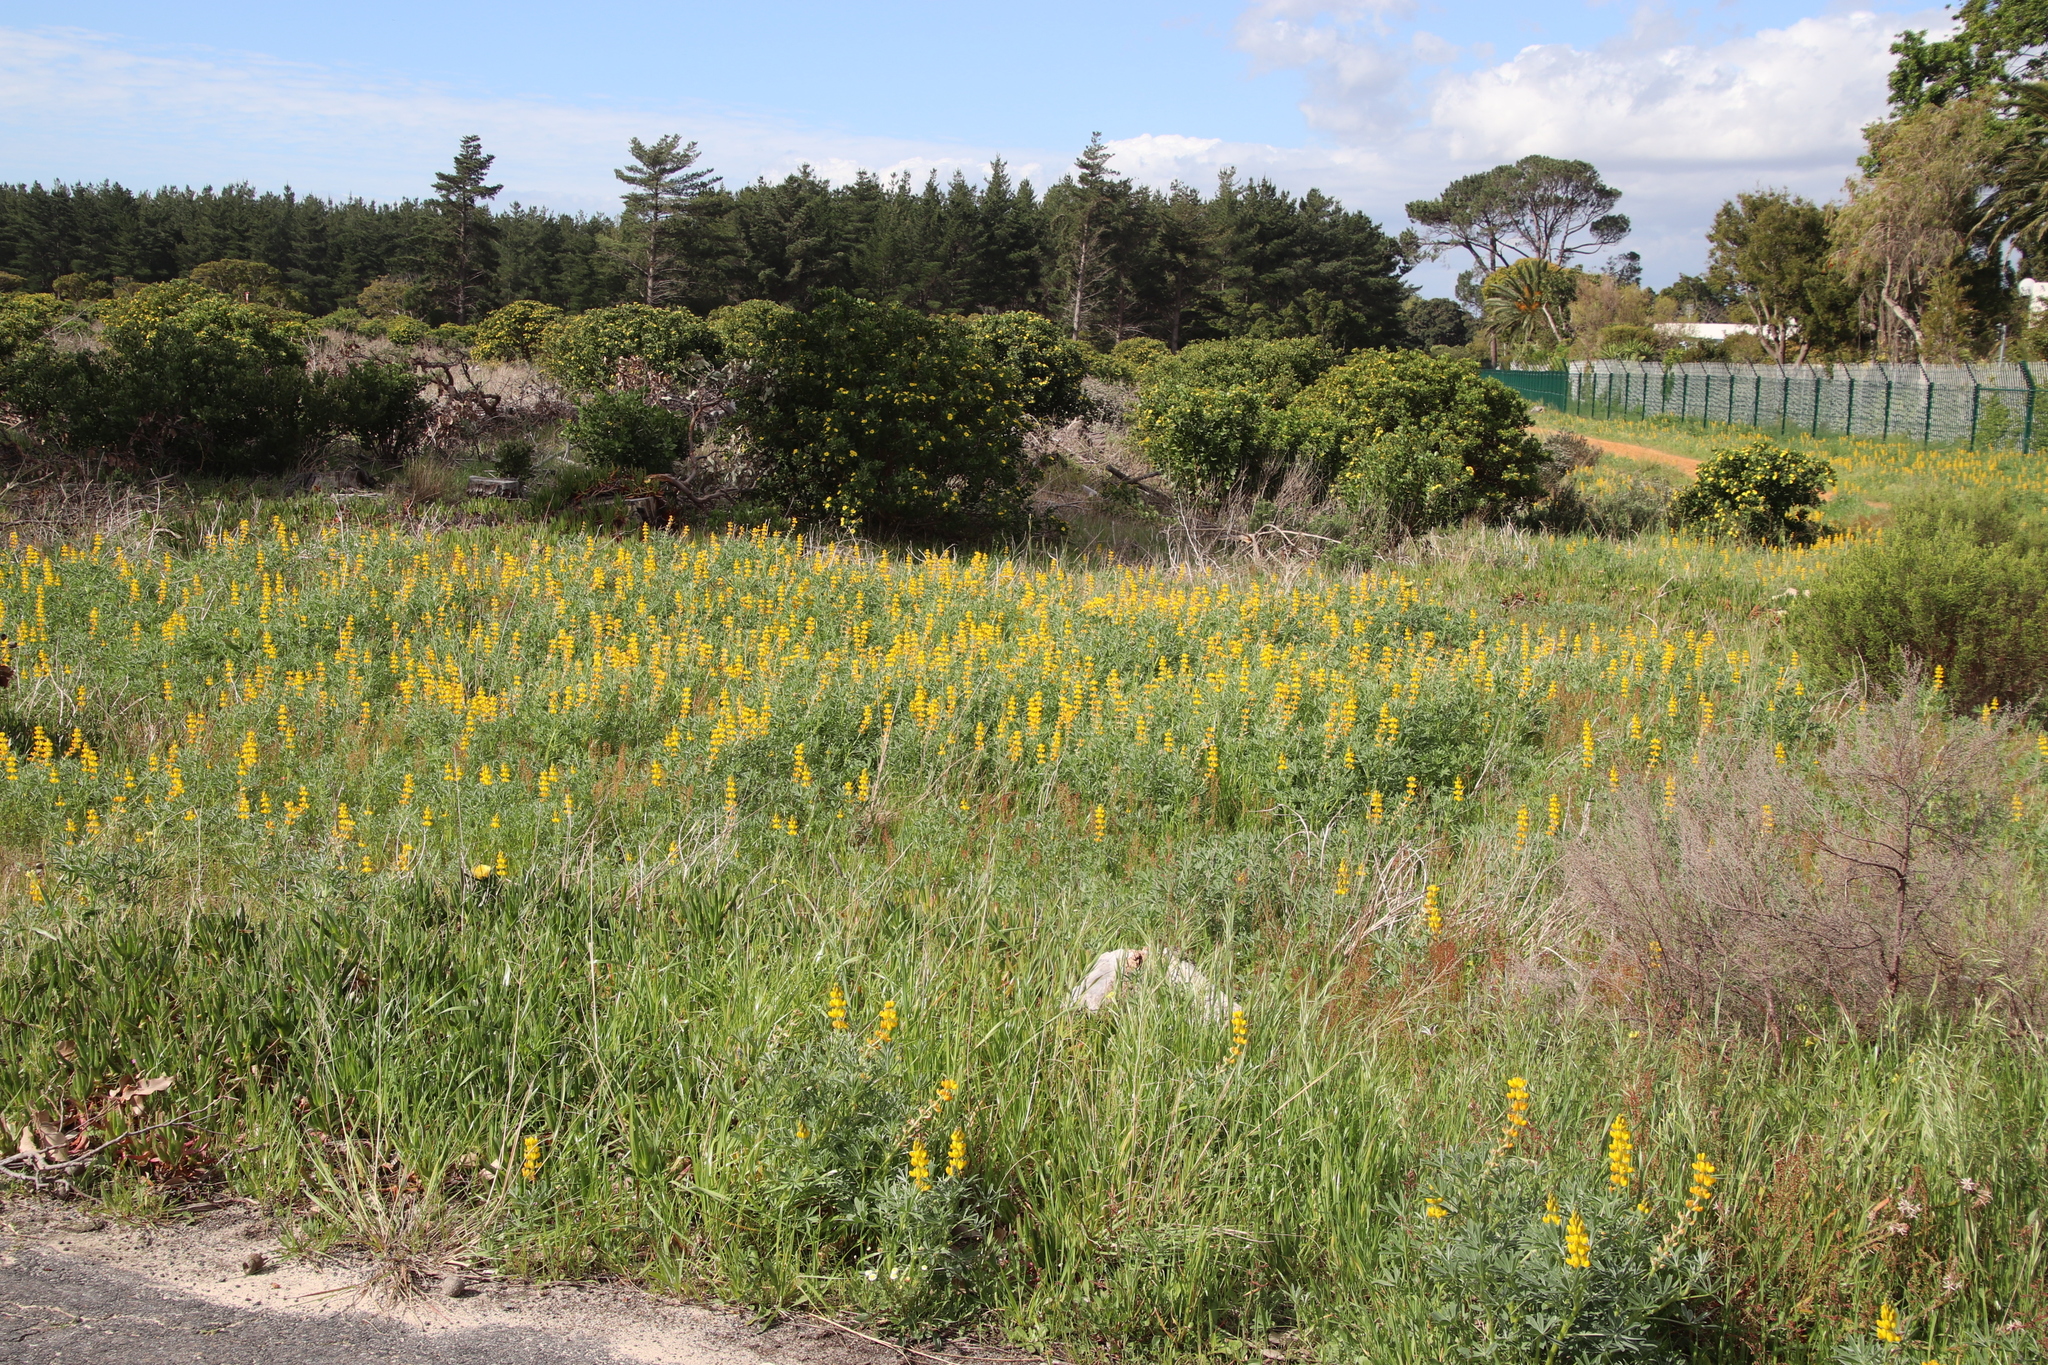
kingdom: Plantae
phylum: Tracheophyta
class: Magnoliopsida
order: Fabales
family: Fabaceae
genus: Lupinus
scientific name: Lupinus luteus
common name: European yellow lupine
